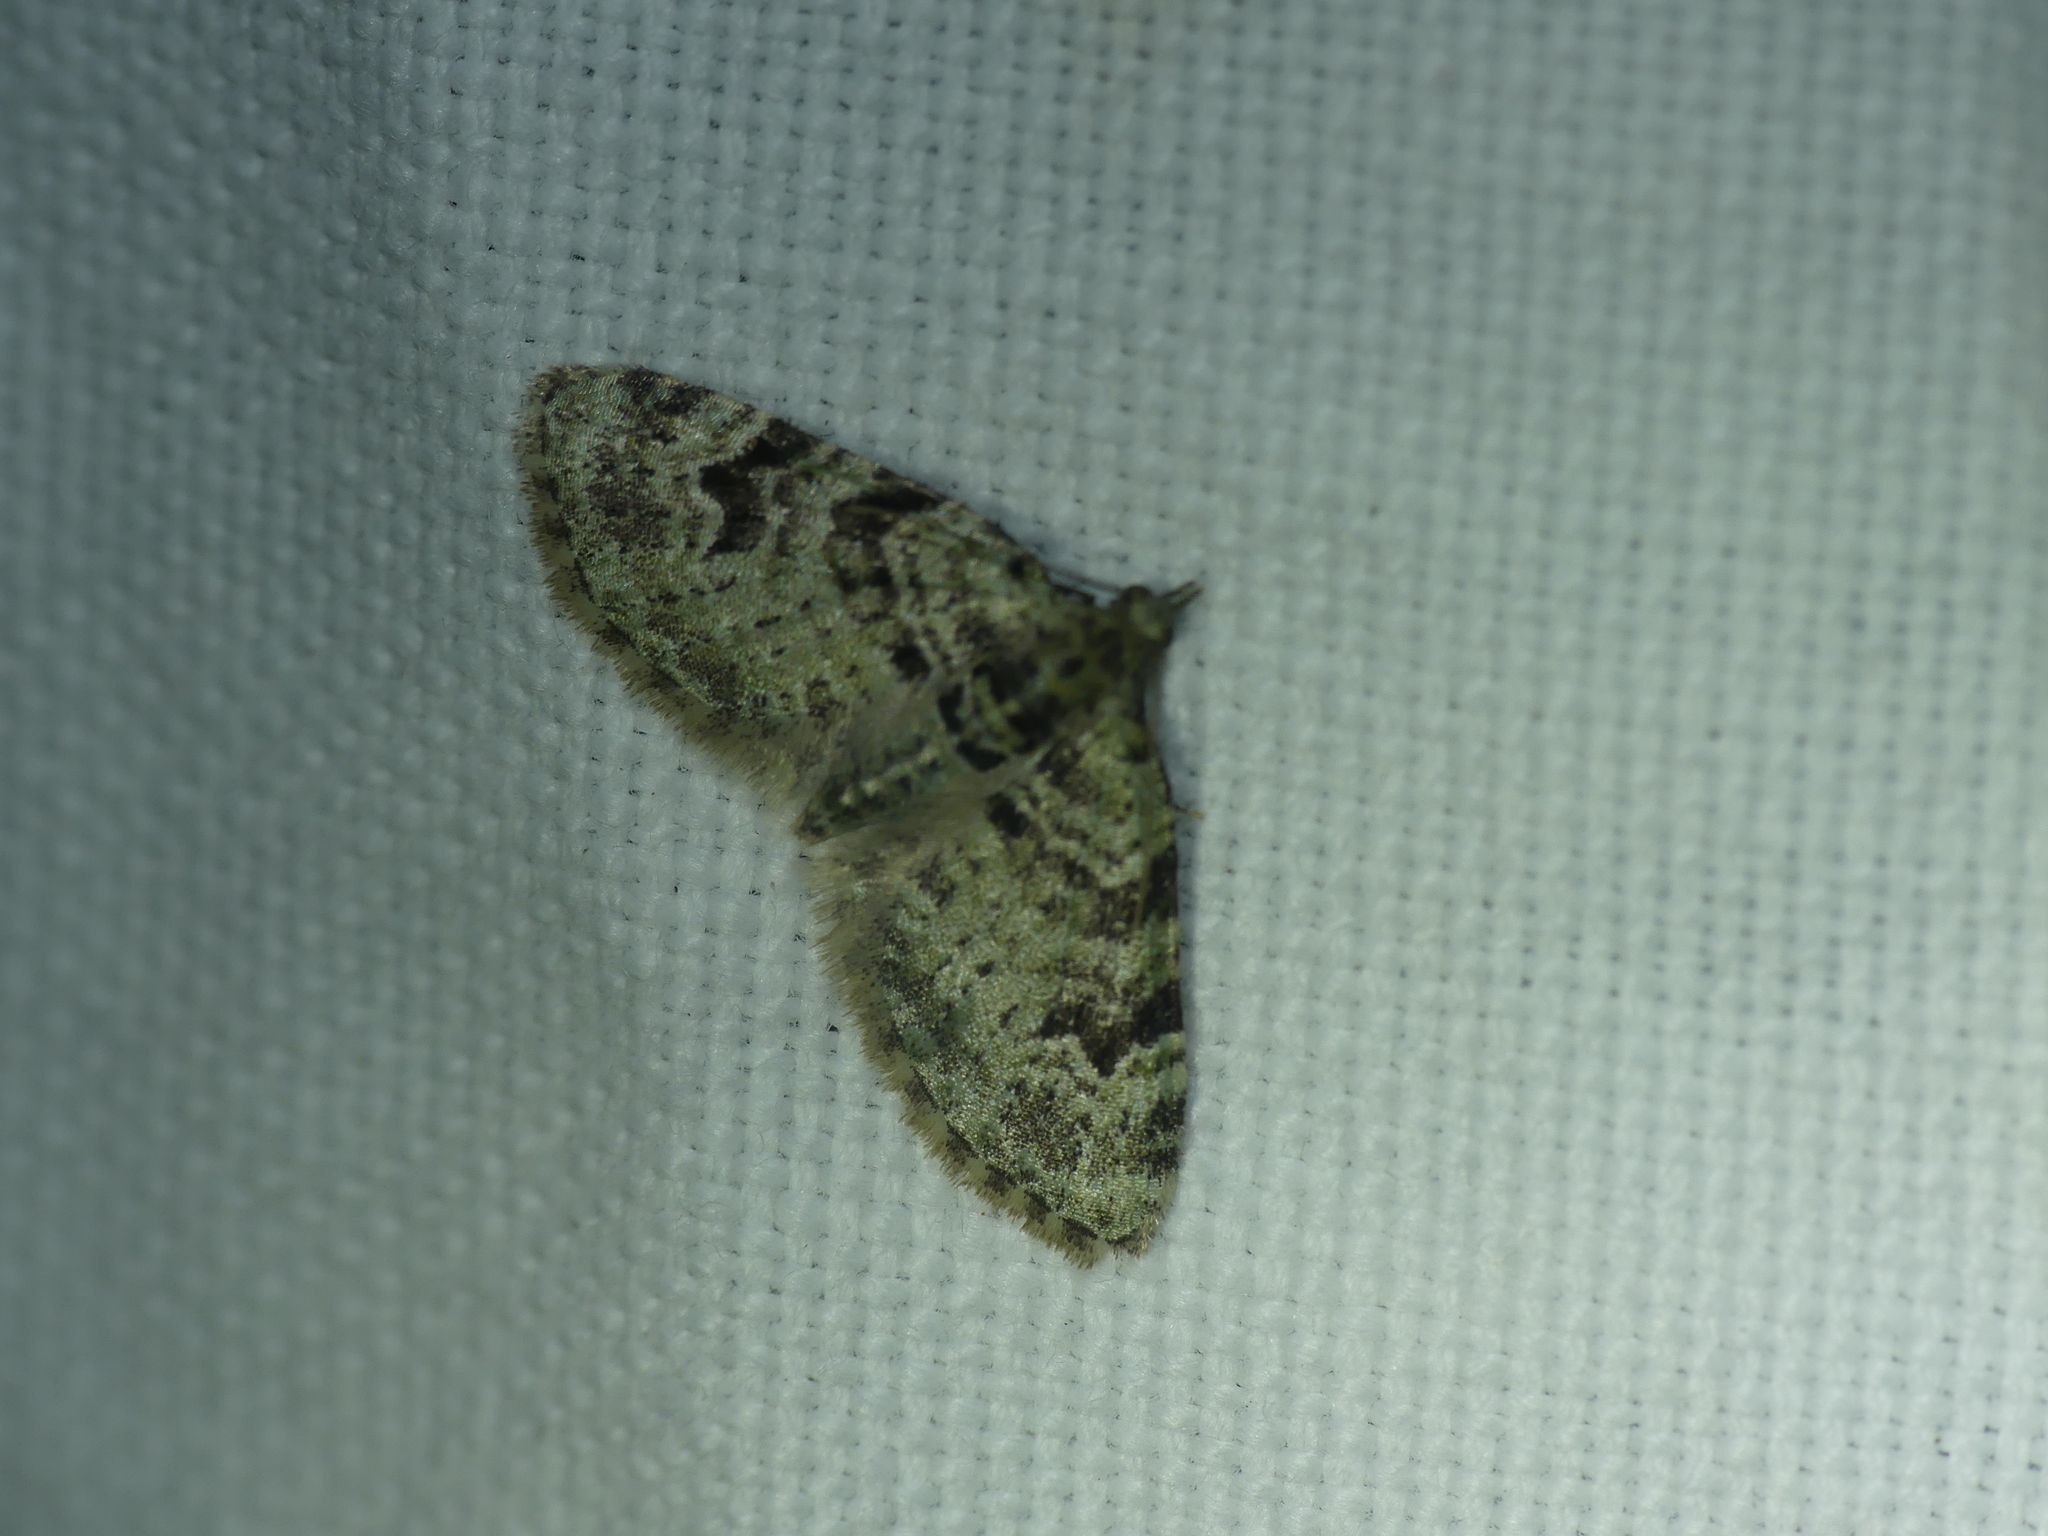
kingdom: Animalia
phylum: Arthropoda
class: Insecta
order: Lepidoptera
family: Geometridae
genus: Chloroclystis
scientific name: Chloroclystis v-ata
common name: V-pug
